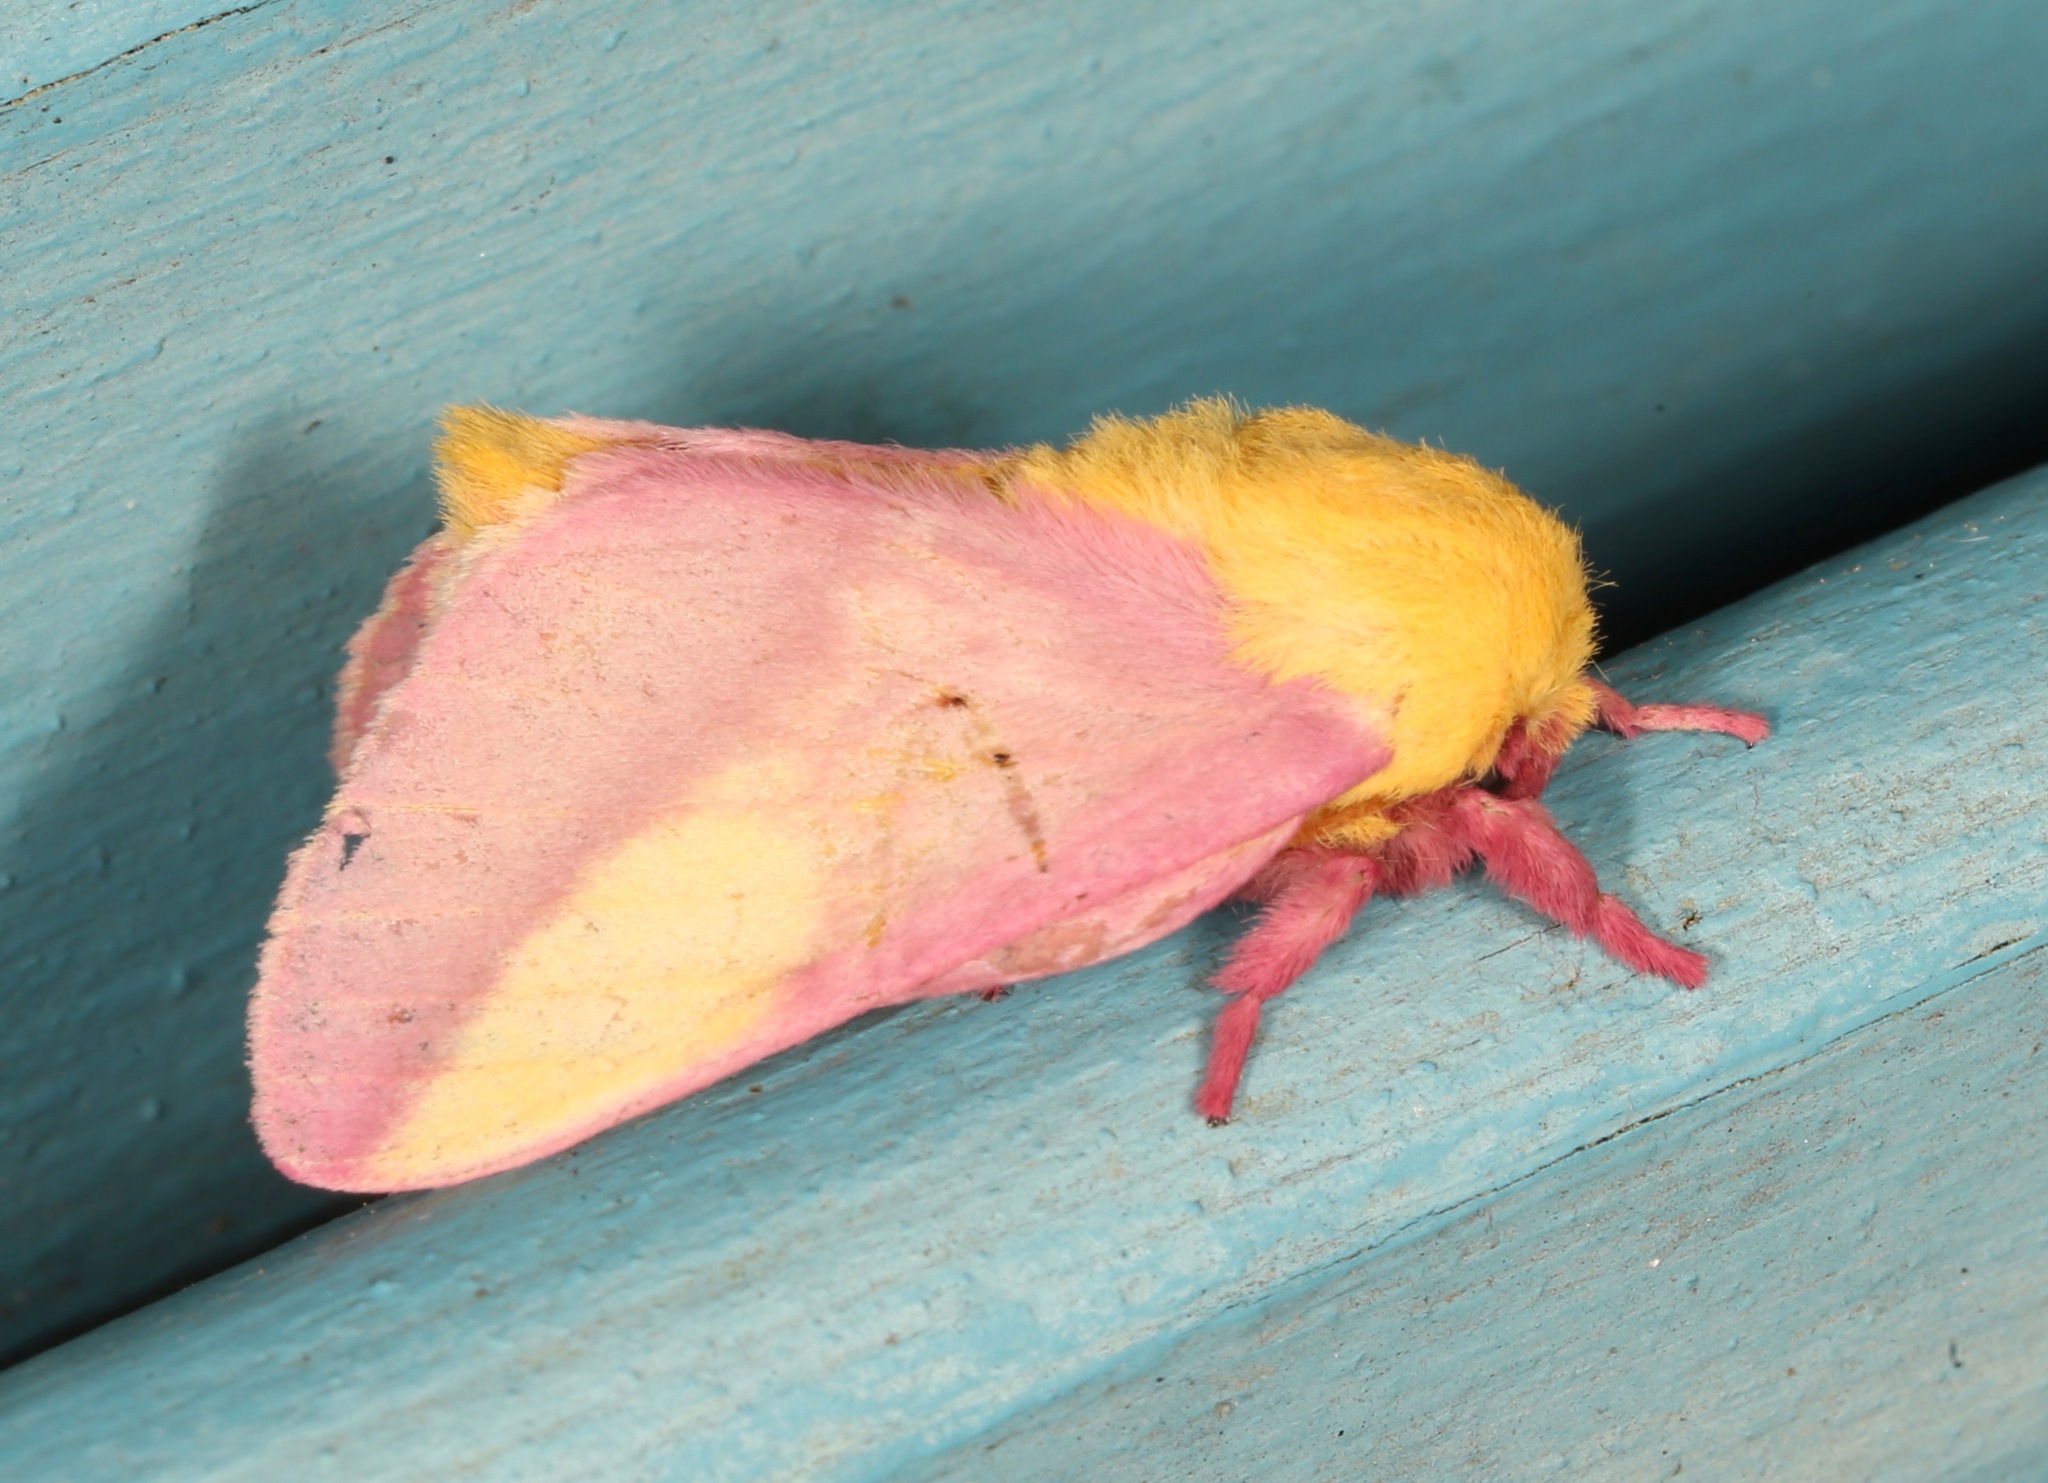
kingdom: Animalia
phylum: Arthropoda
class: Insecta
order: Lepidoptera
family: Saturniidae
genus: Dryocampa
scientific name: Dryocampa rubicunda
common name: Rosy maple moth
